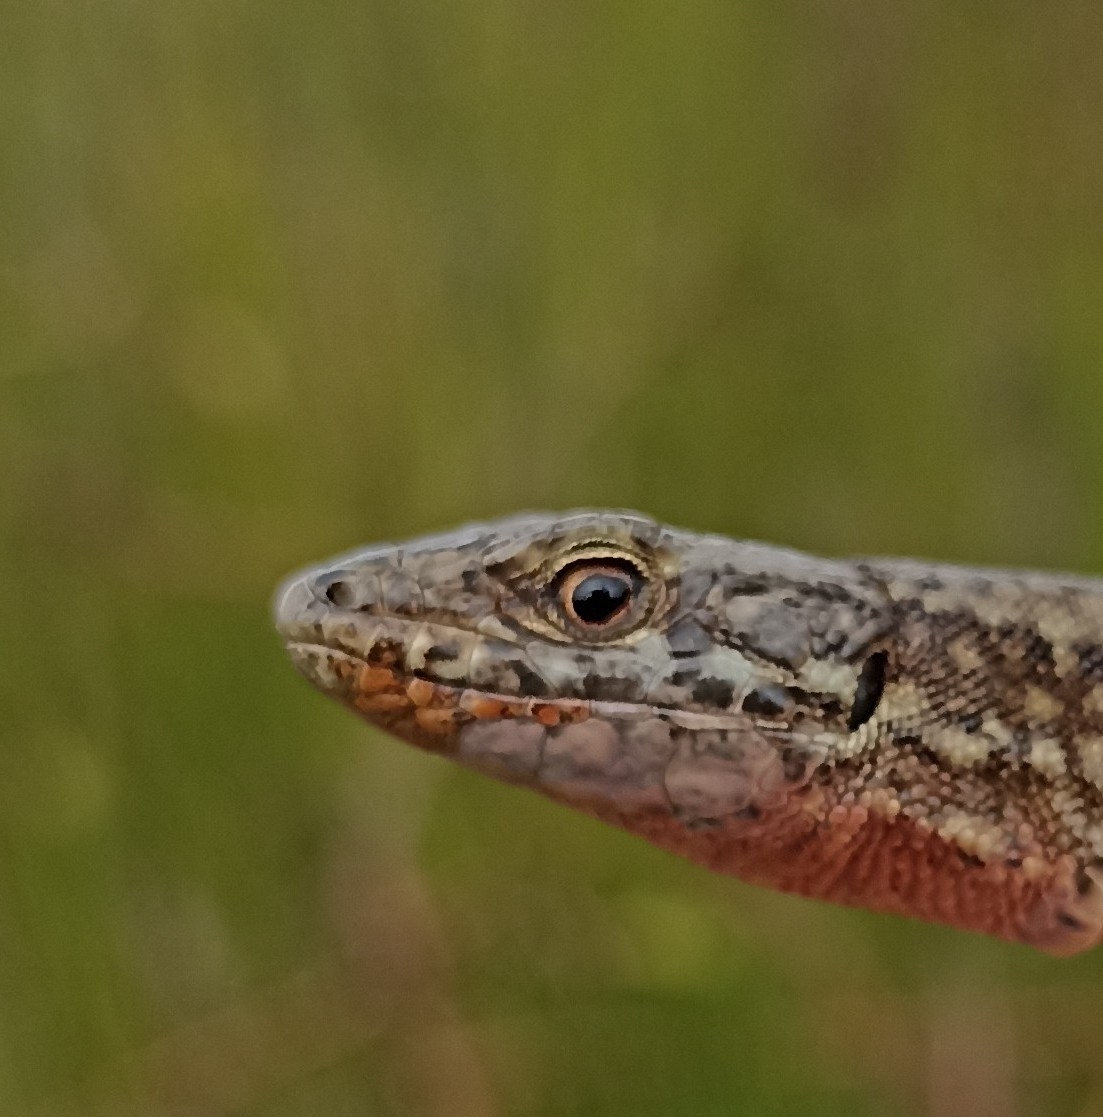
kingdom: Animalia
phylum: Chordata
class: Squamata
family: Lacertidae
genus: Podarcis
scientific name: Podarcis muralis
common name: Common wall lizard
